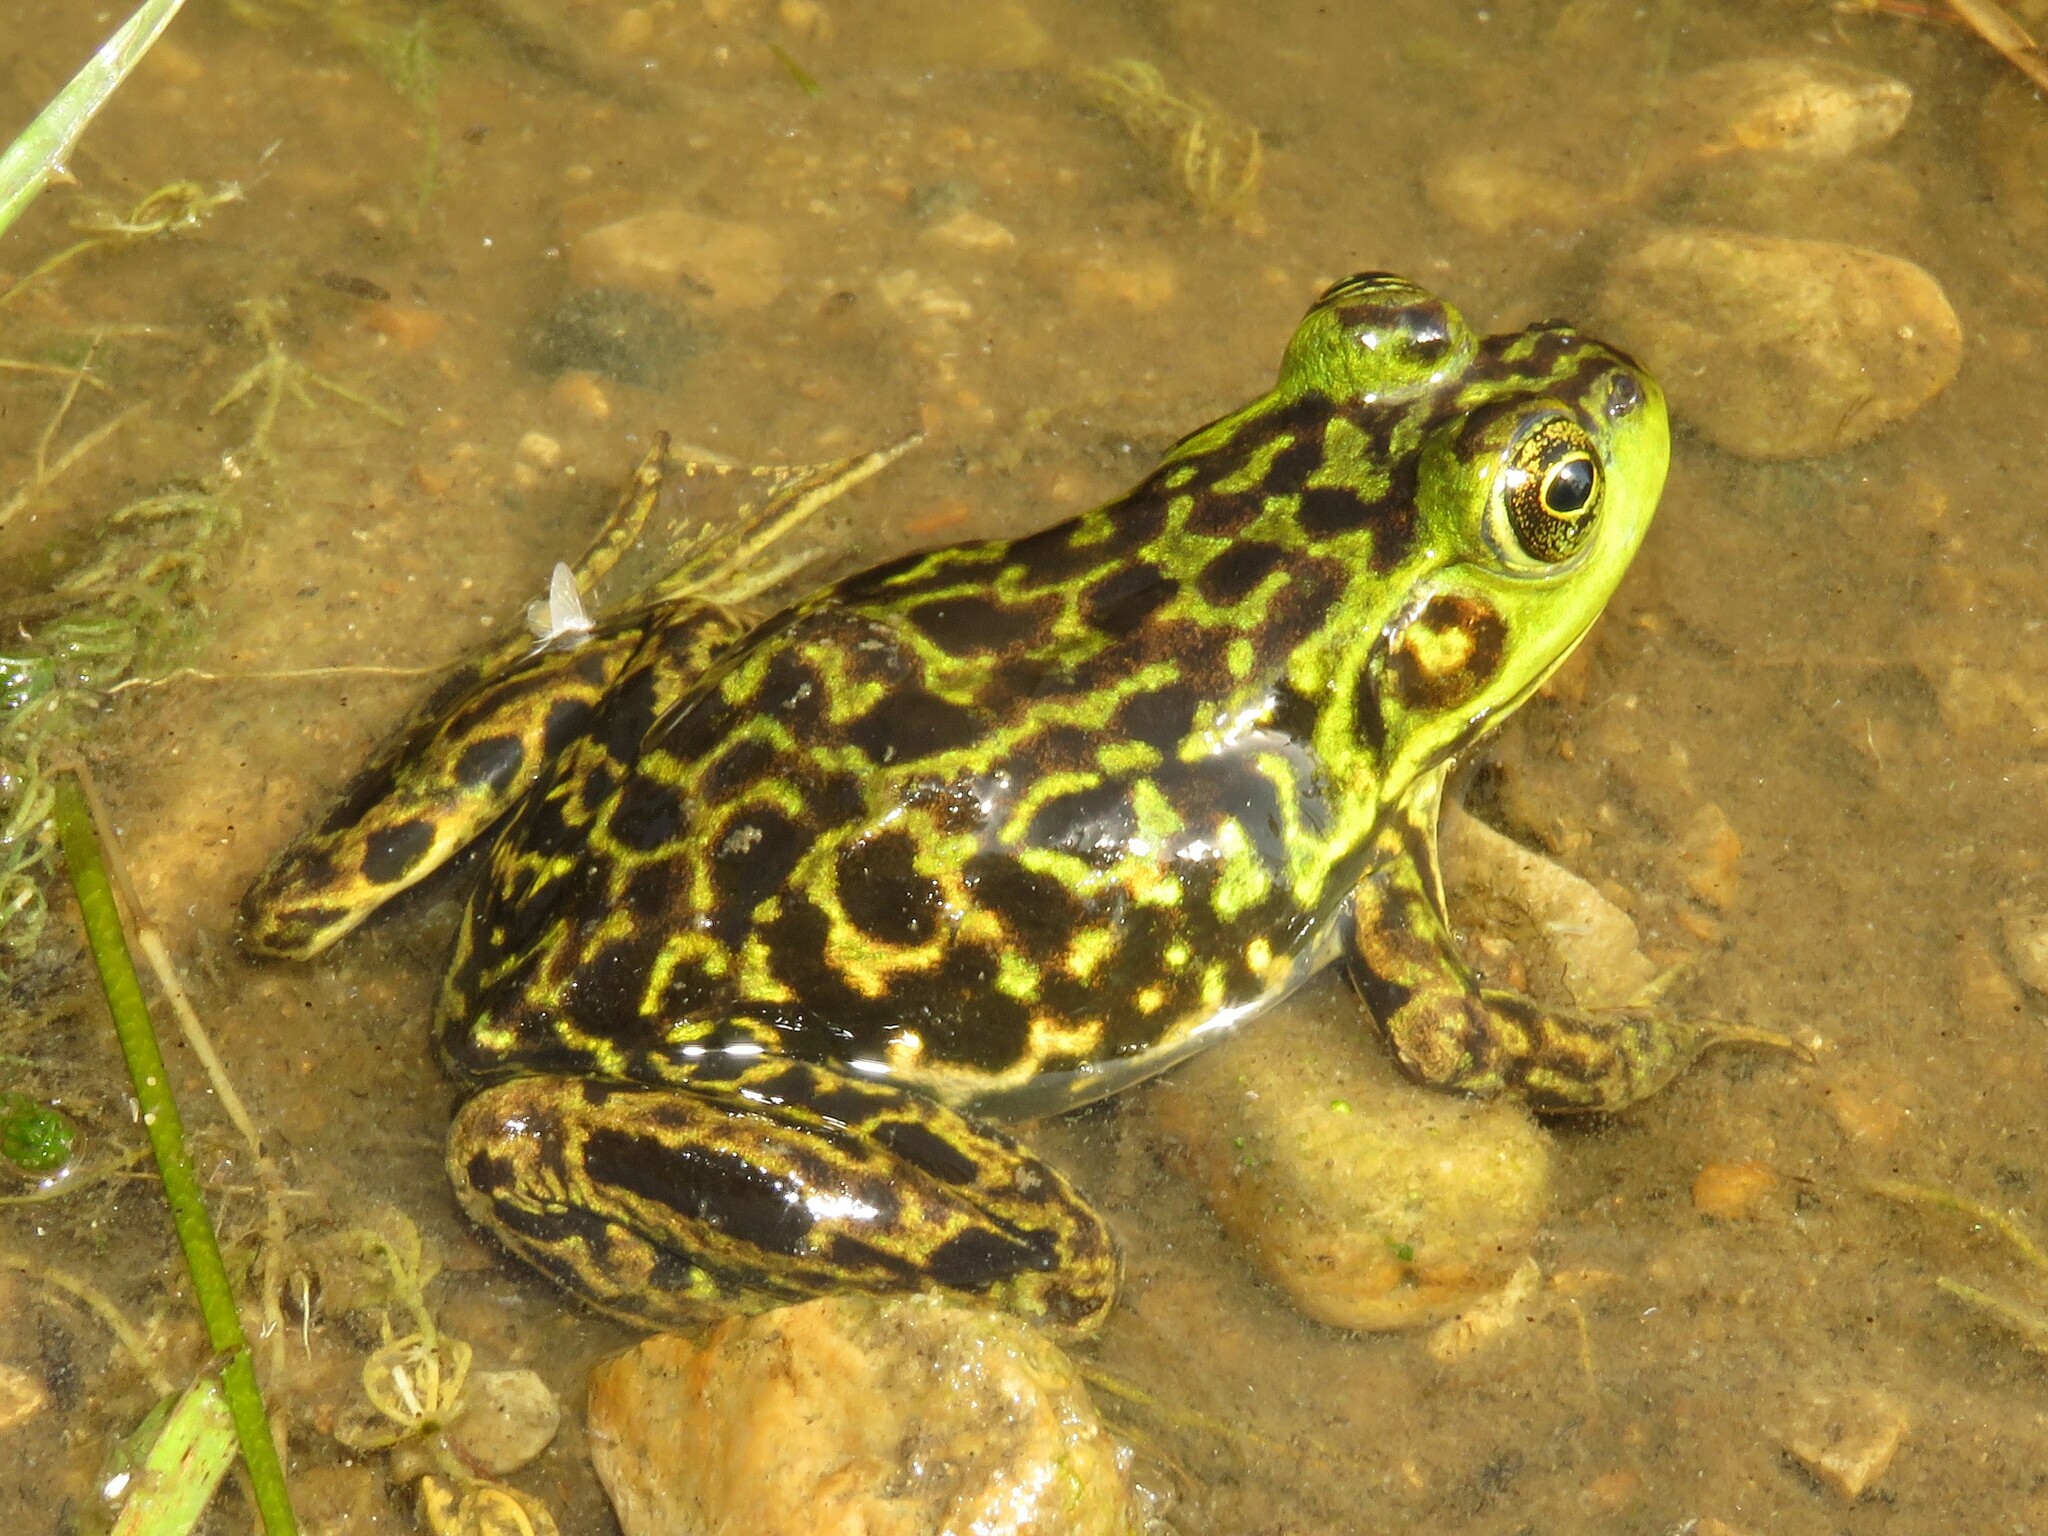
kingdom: Animalia
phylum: Chordata
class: Amphibia
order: Anura
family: Ranidae
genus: Lithobates
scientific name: Lithobates septentrionalis
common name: Mink frog
